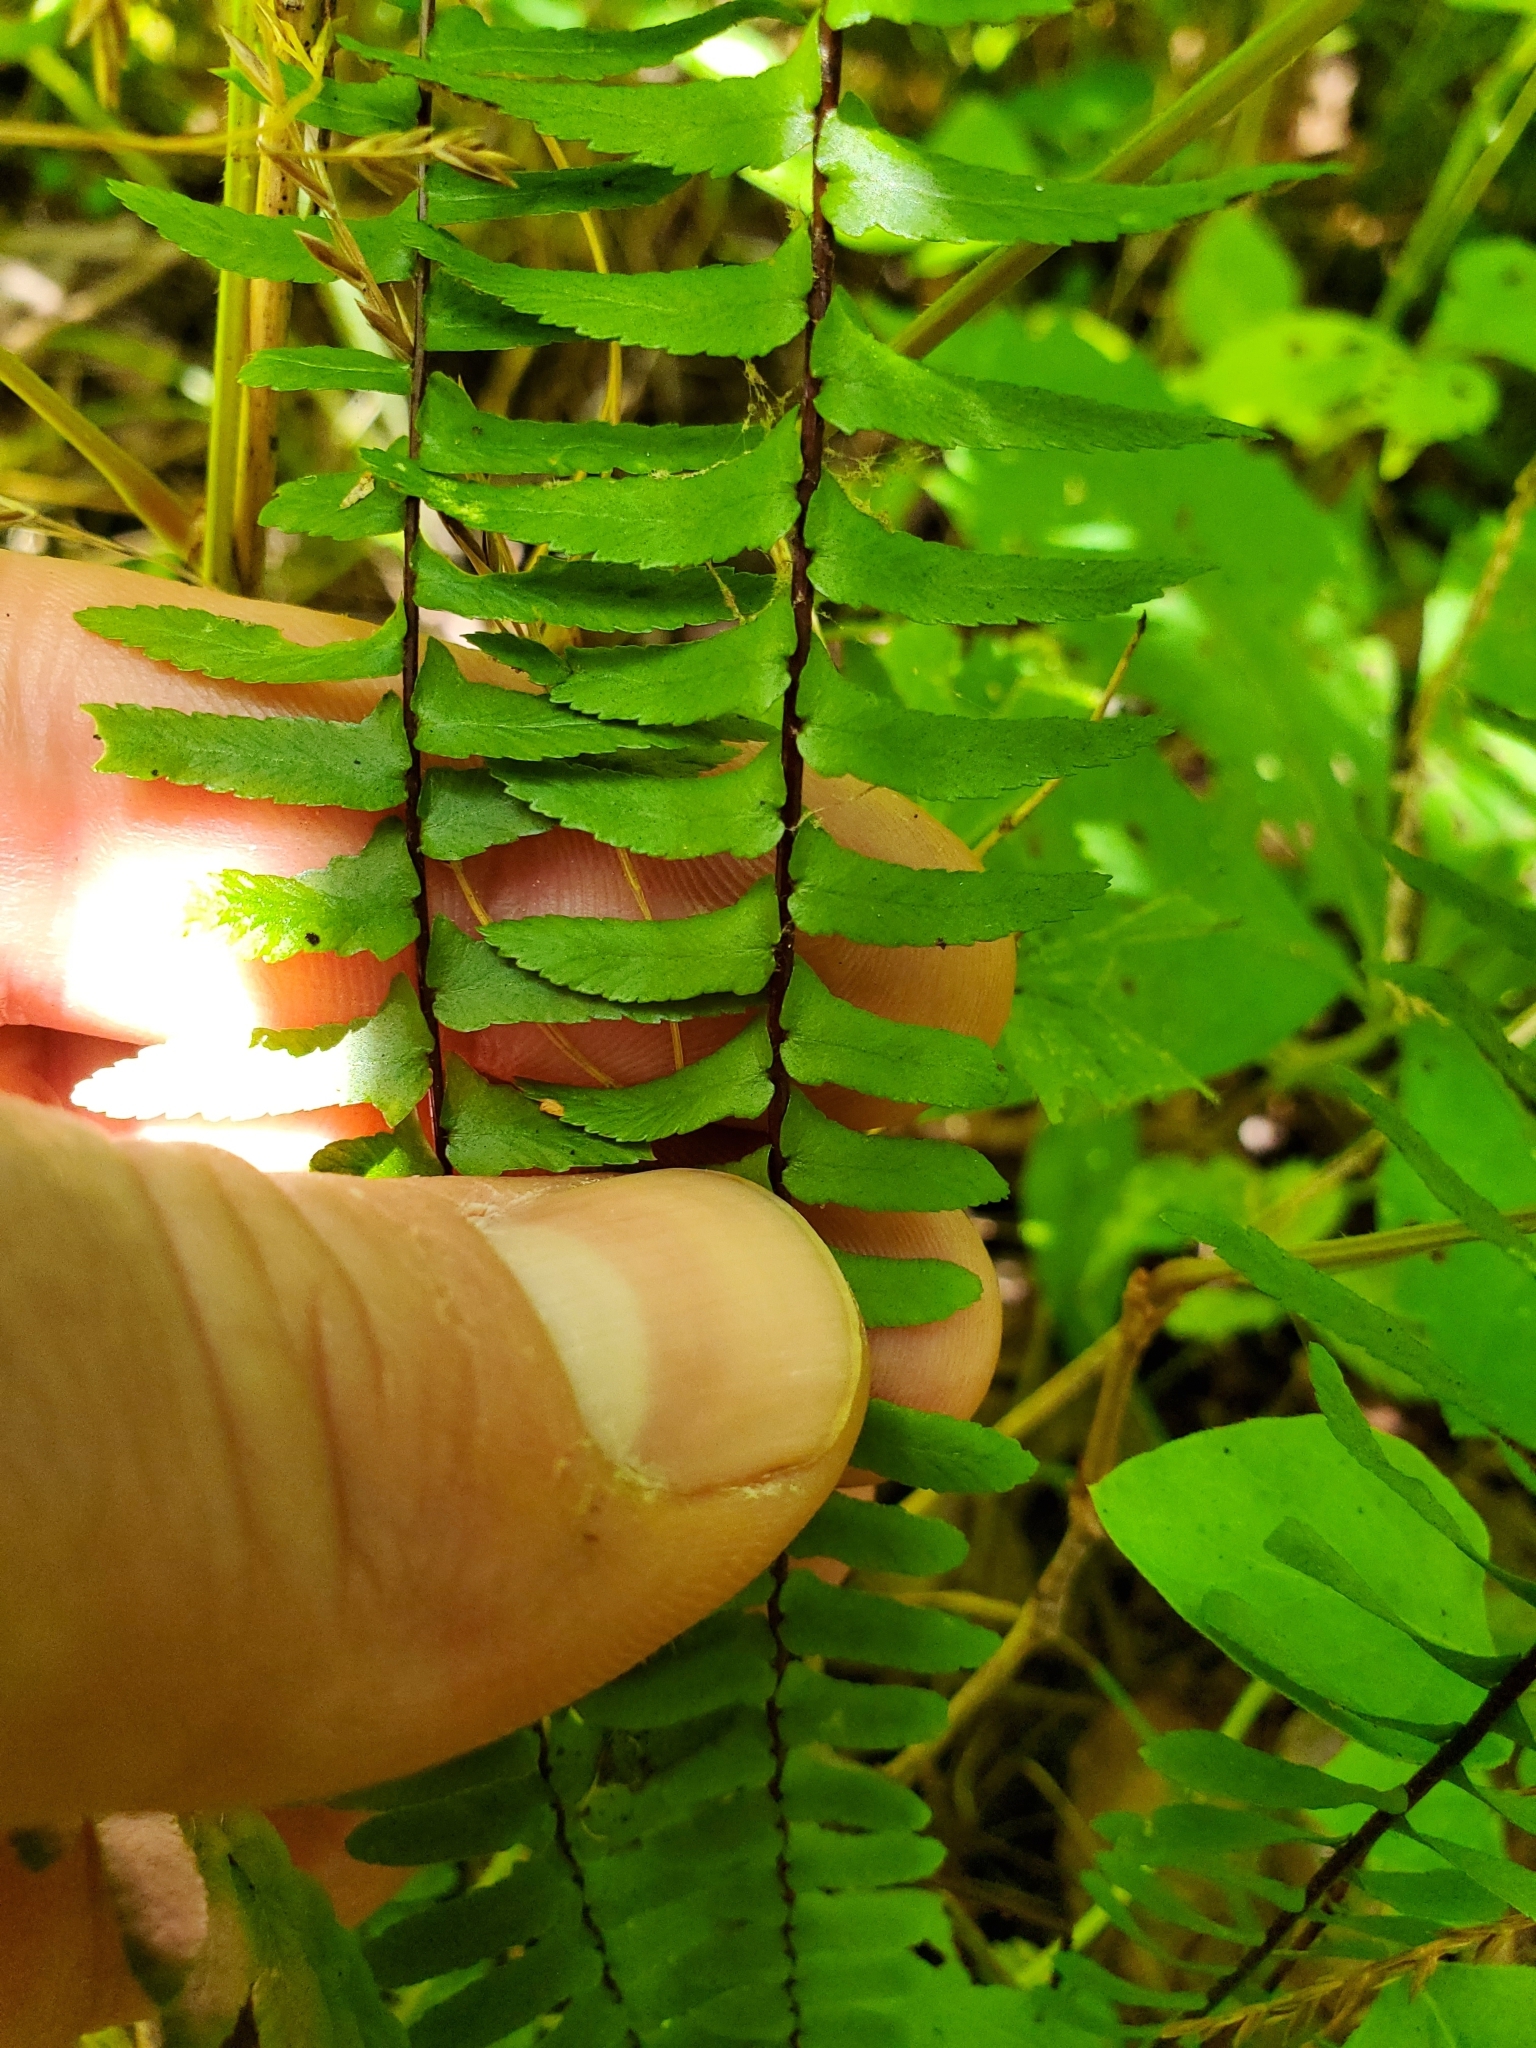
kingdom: Plantae
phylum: Tracheophyta
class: Polypodiopsida
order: Polypodiales
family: Aspleniaceae
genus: Asplenium
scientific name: Asplenium platyneuron
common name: Ebony spleenwort
